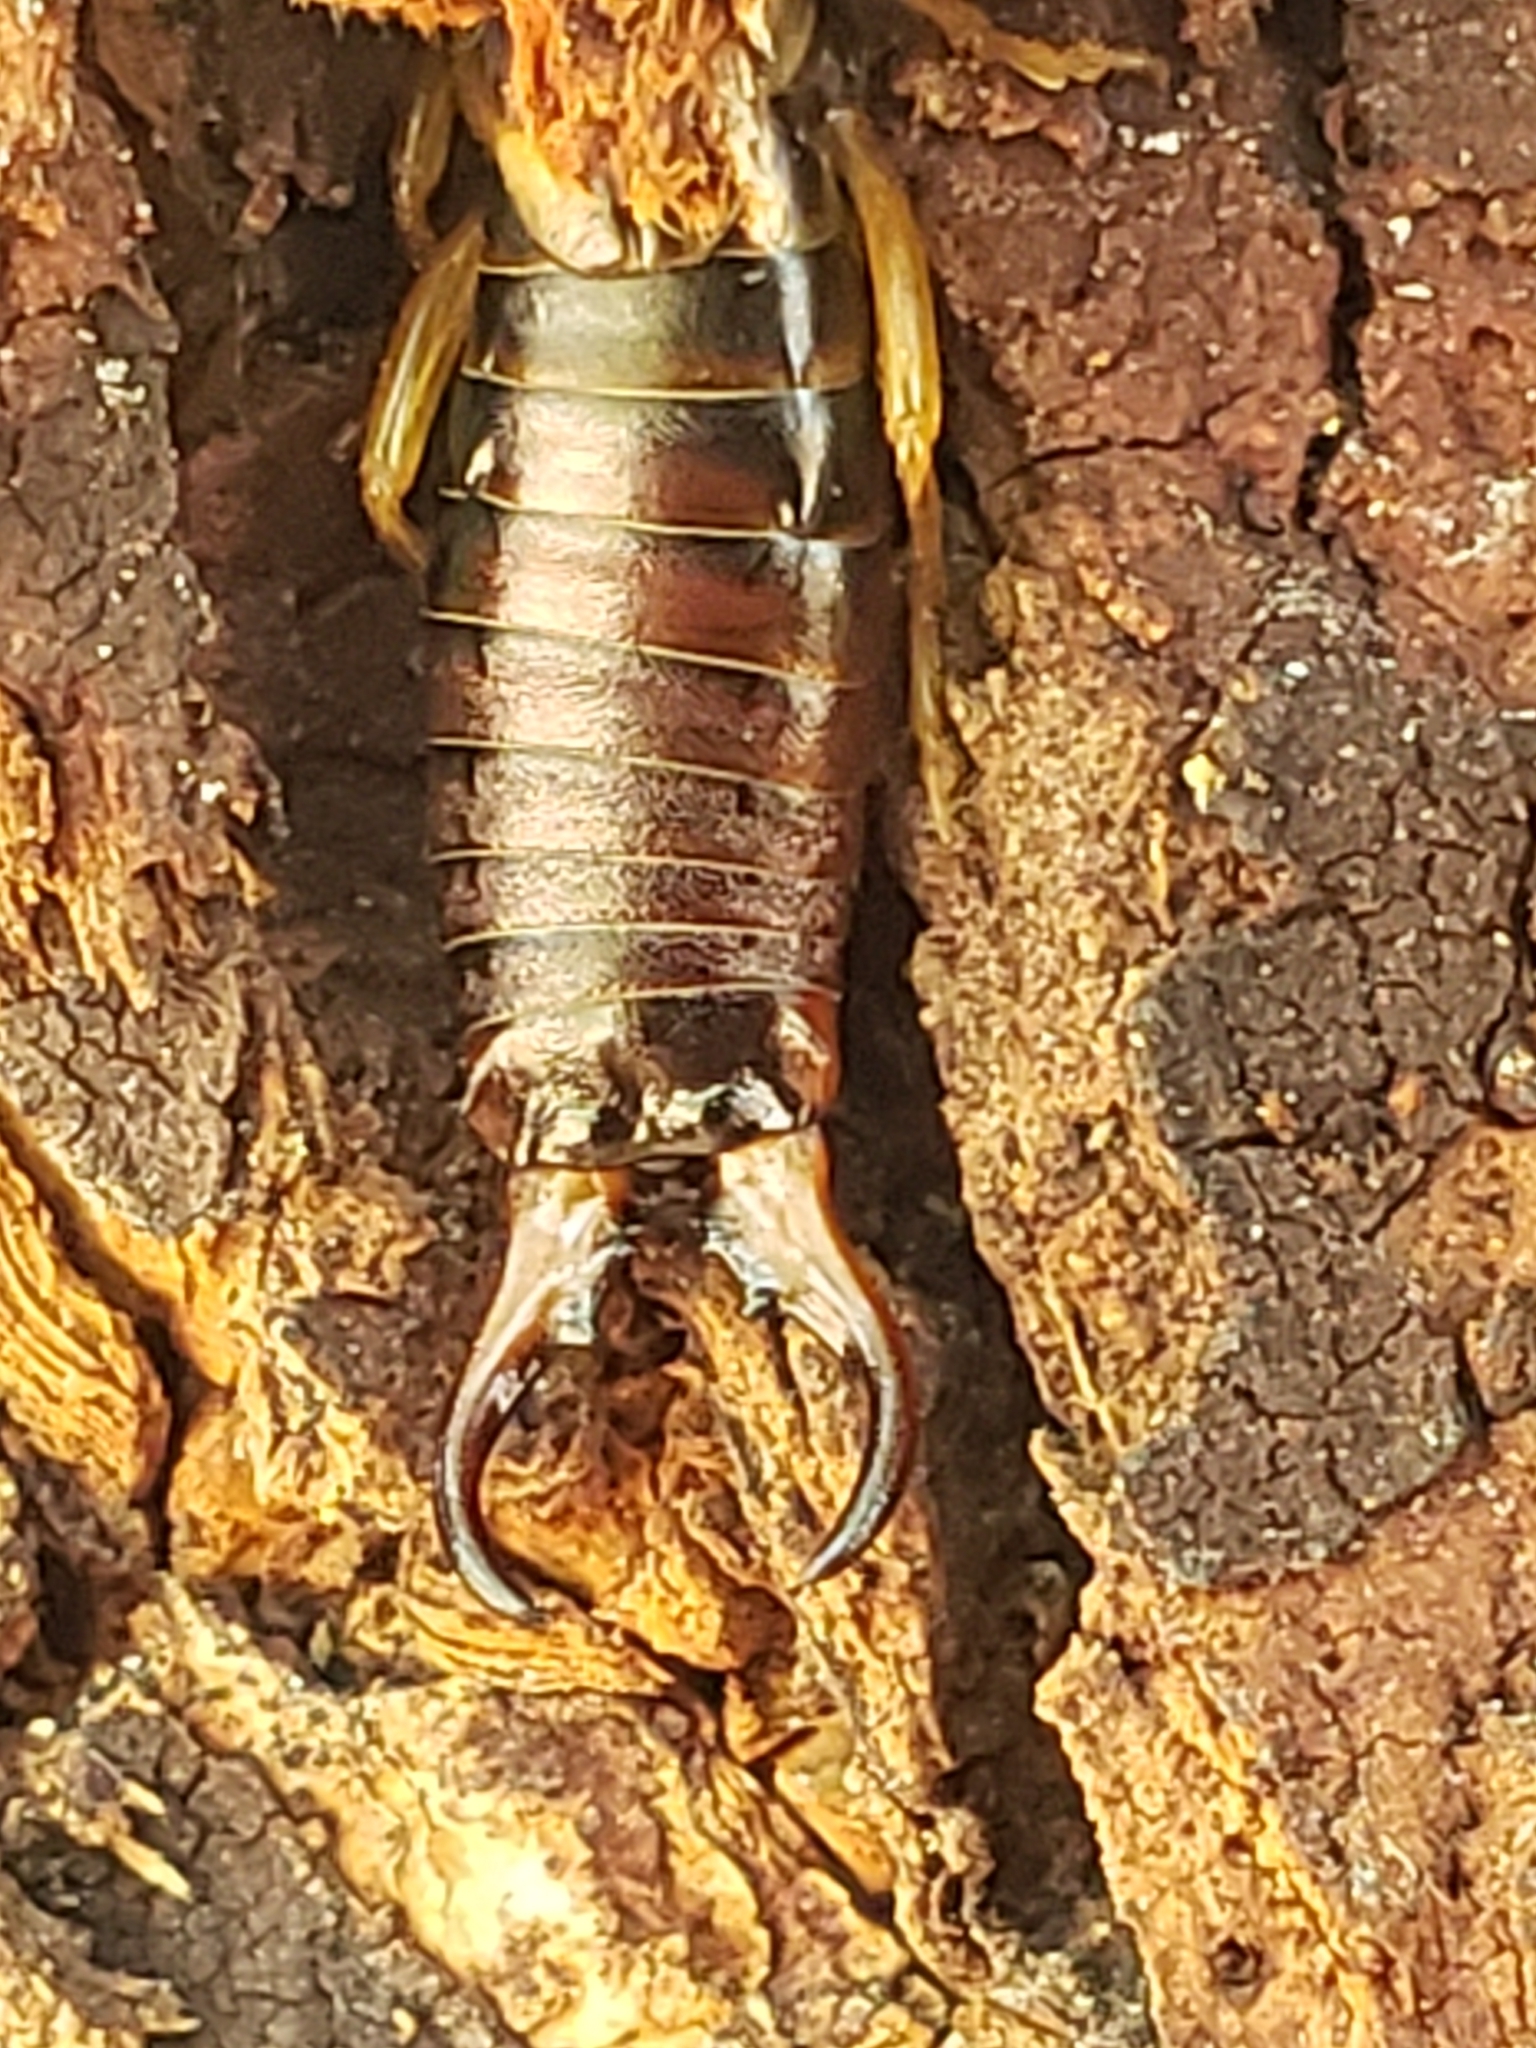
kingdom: Animalia
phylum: Arthropoda
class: Insecta
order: Dermaptera
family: Forficulidae
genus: Forficula
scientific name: Forficula
